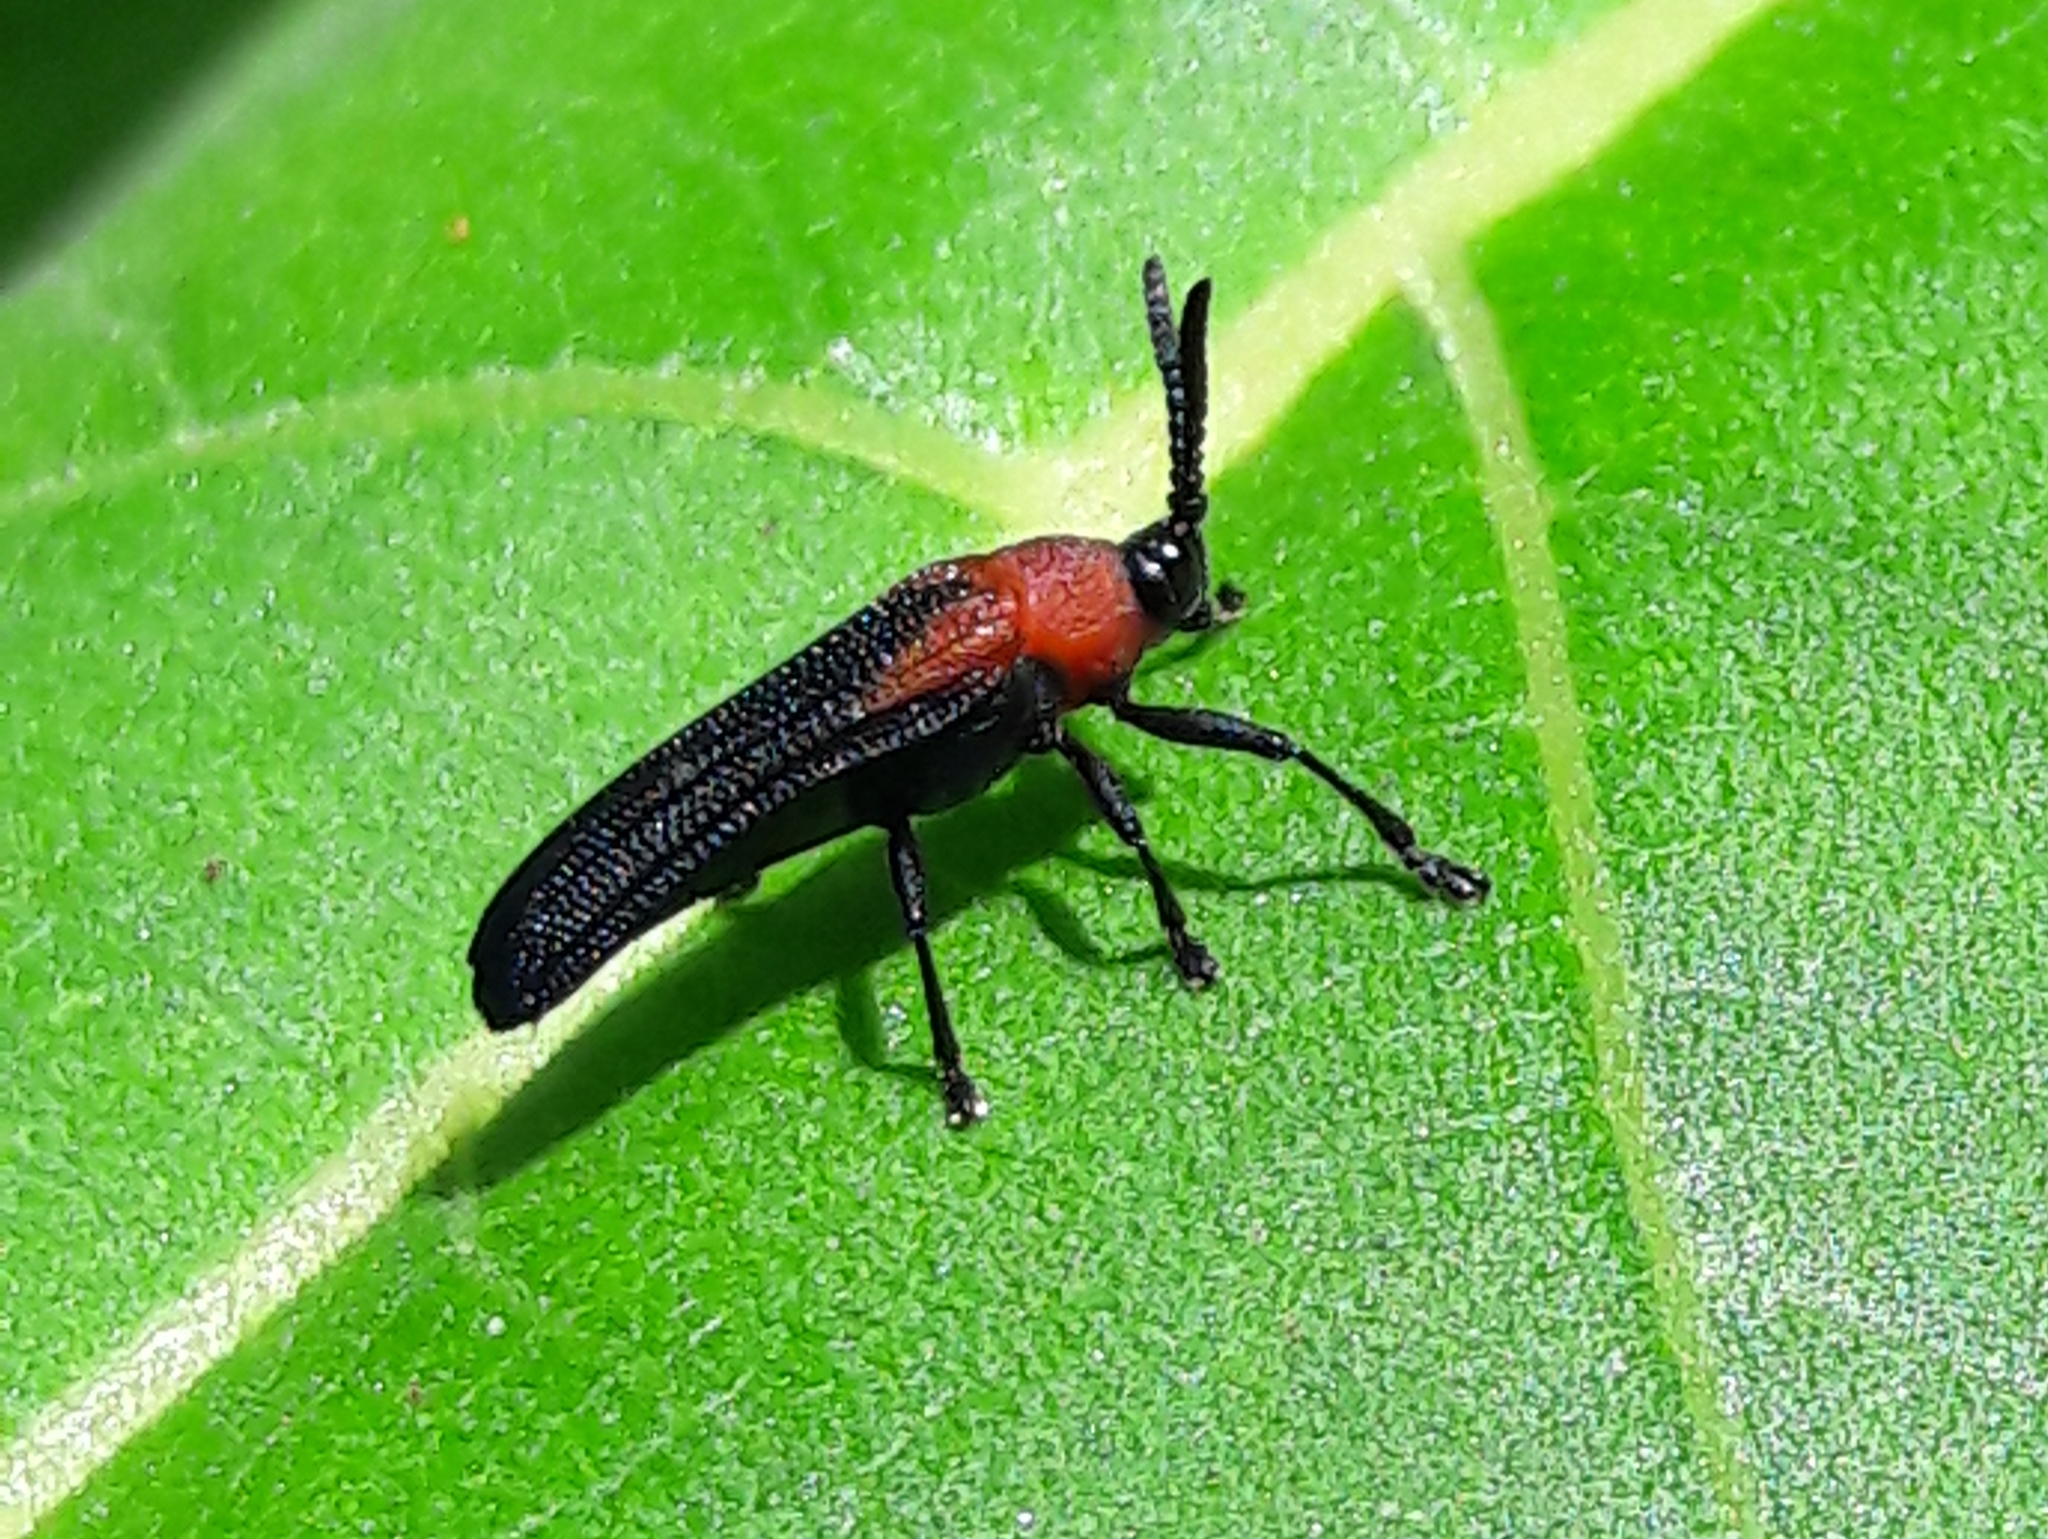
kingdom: Animalia
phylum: Arthropoda
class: Insecta
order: Coleoptera
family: Chrysomelidae
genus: Chalepus
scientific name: Chalepus cincticollis
